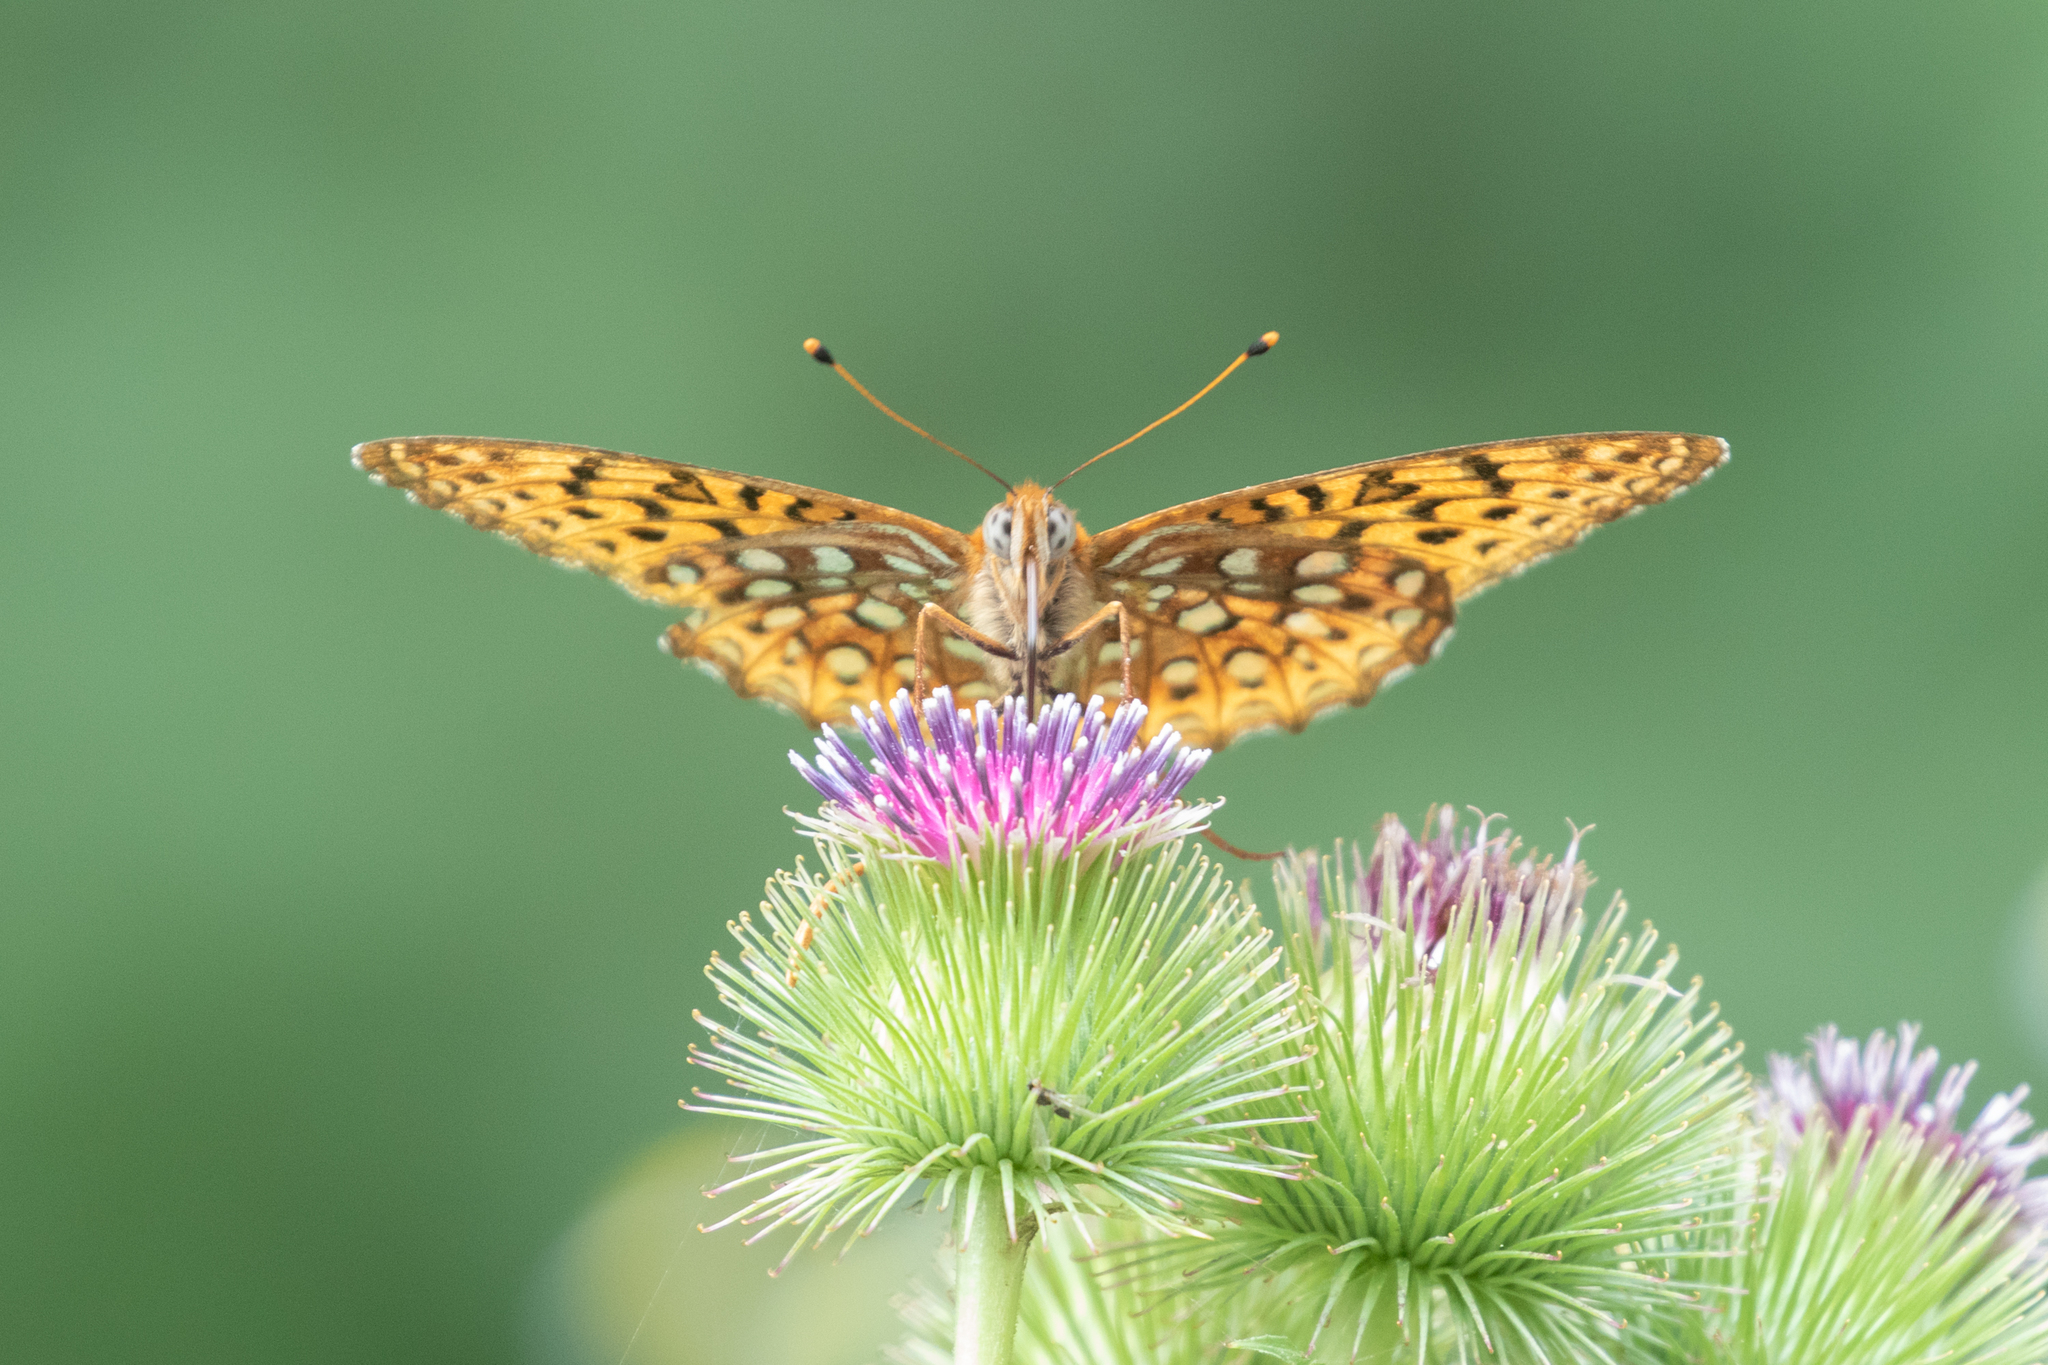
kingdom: Animalia
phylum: Arthropoda
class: Insecta
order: Lepidoptera
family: Nymphalidae
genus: Speyeria
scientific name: Speyeria atlantis
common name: Atlantis fritillary
